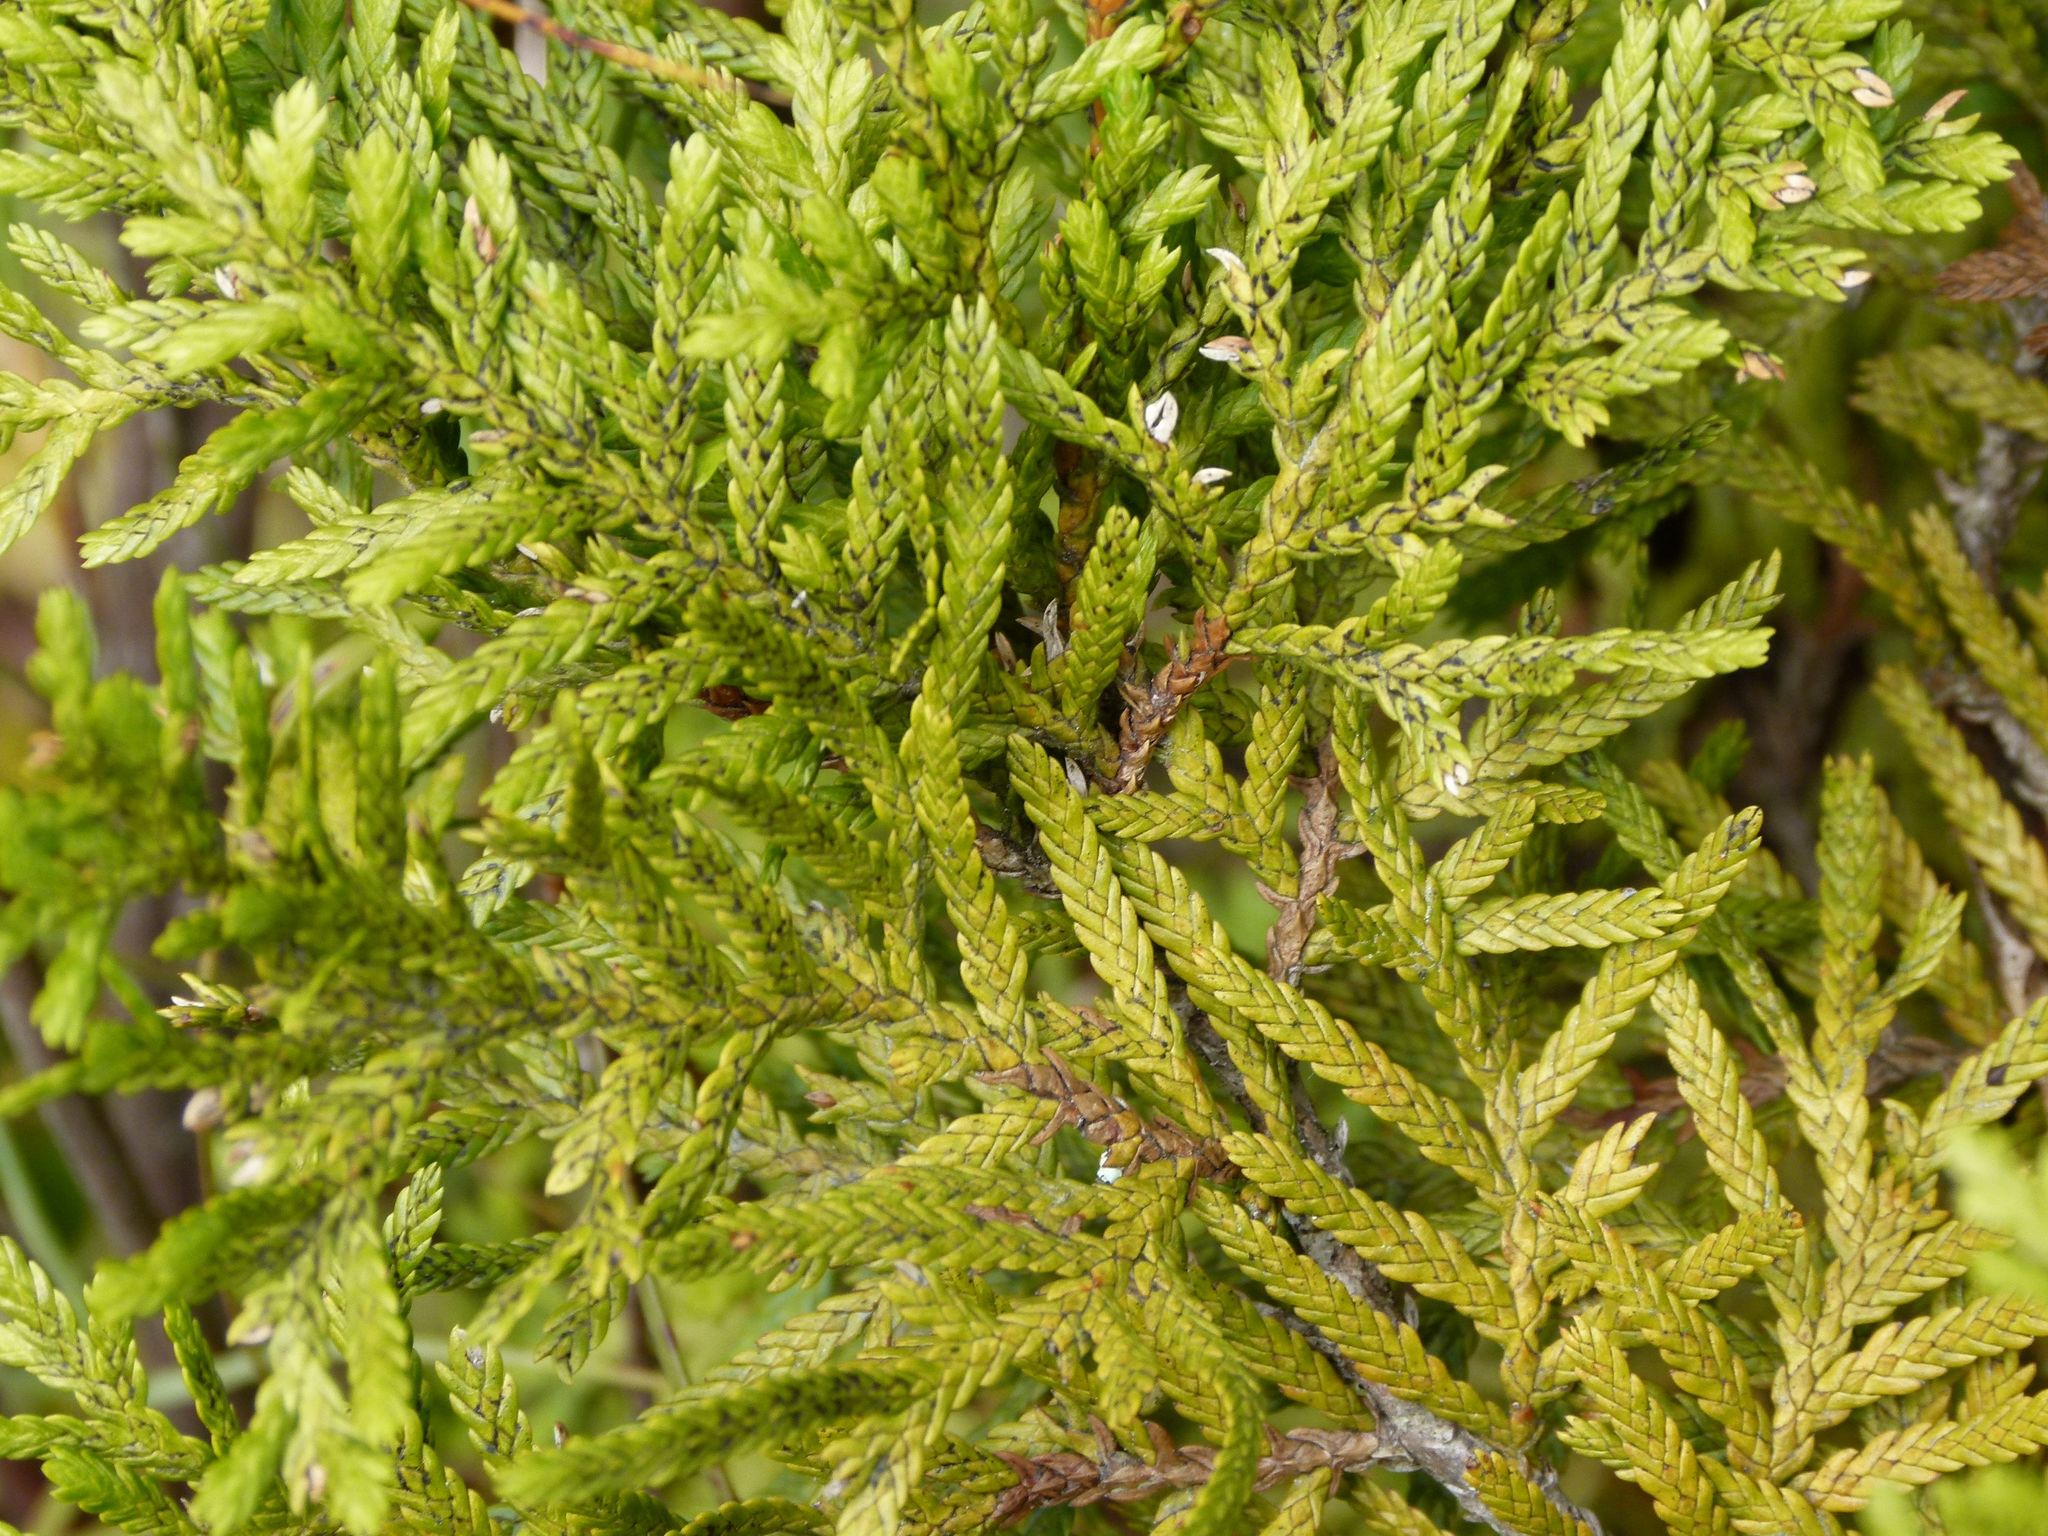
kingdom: Plantae
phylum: Tracheophyta
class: Pinopsida
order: Pinales
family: Cupressaceae
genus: Libocedrus
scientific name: Libocedrus bidwillii
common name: Cedar
